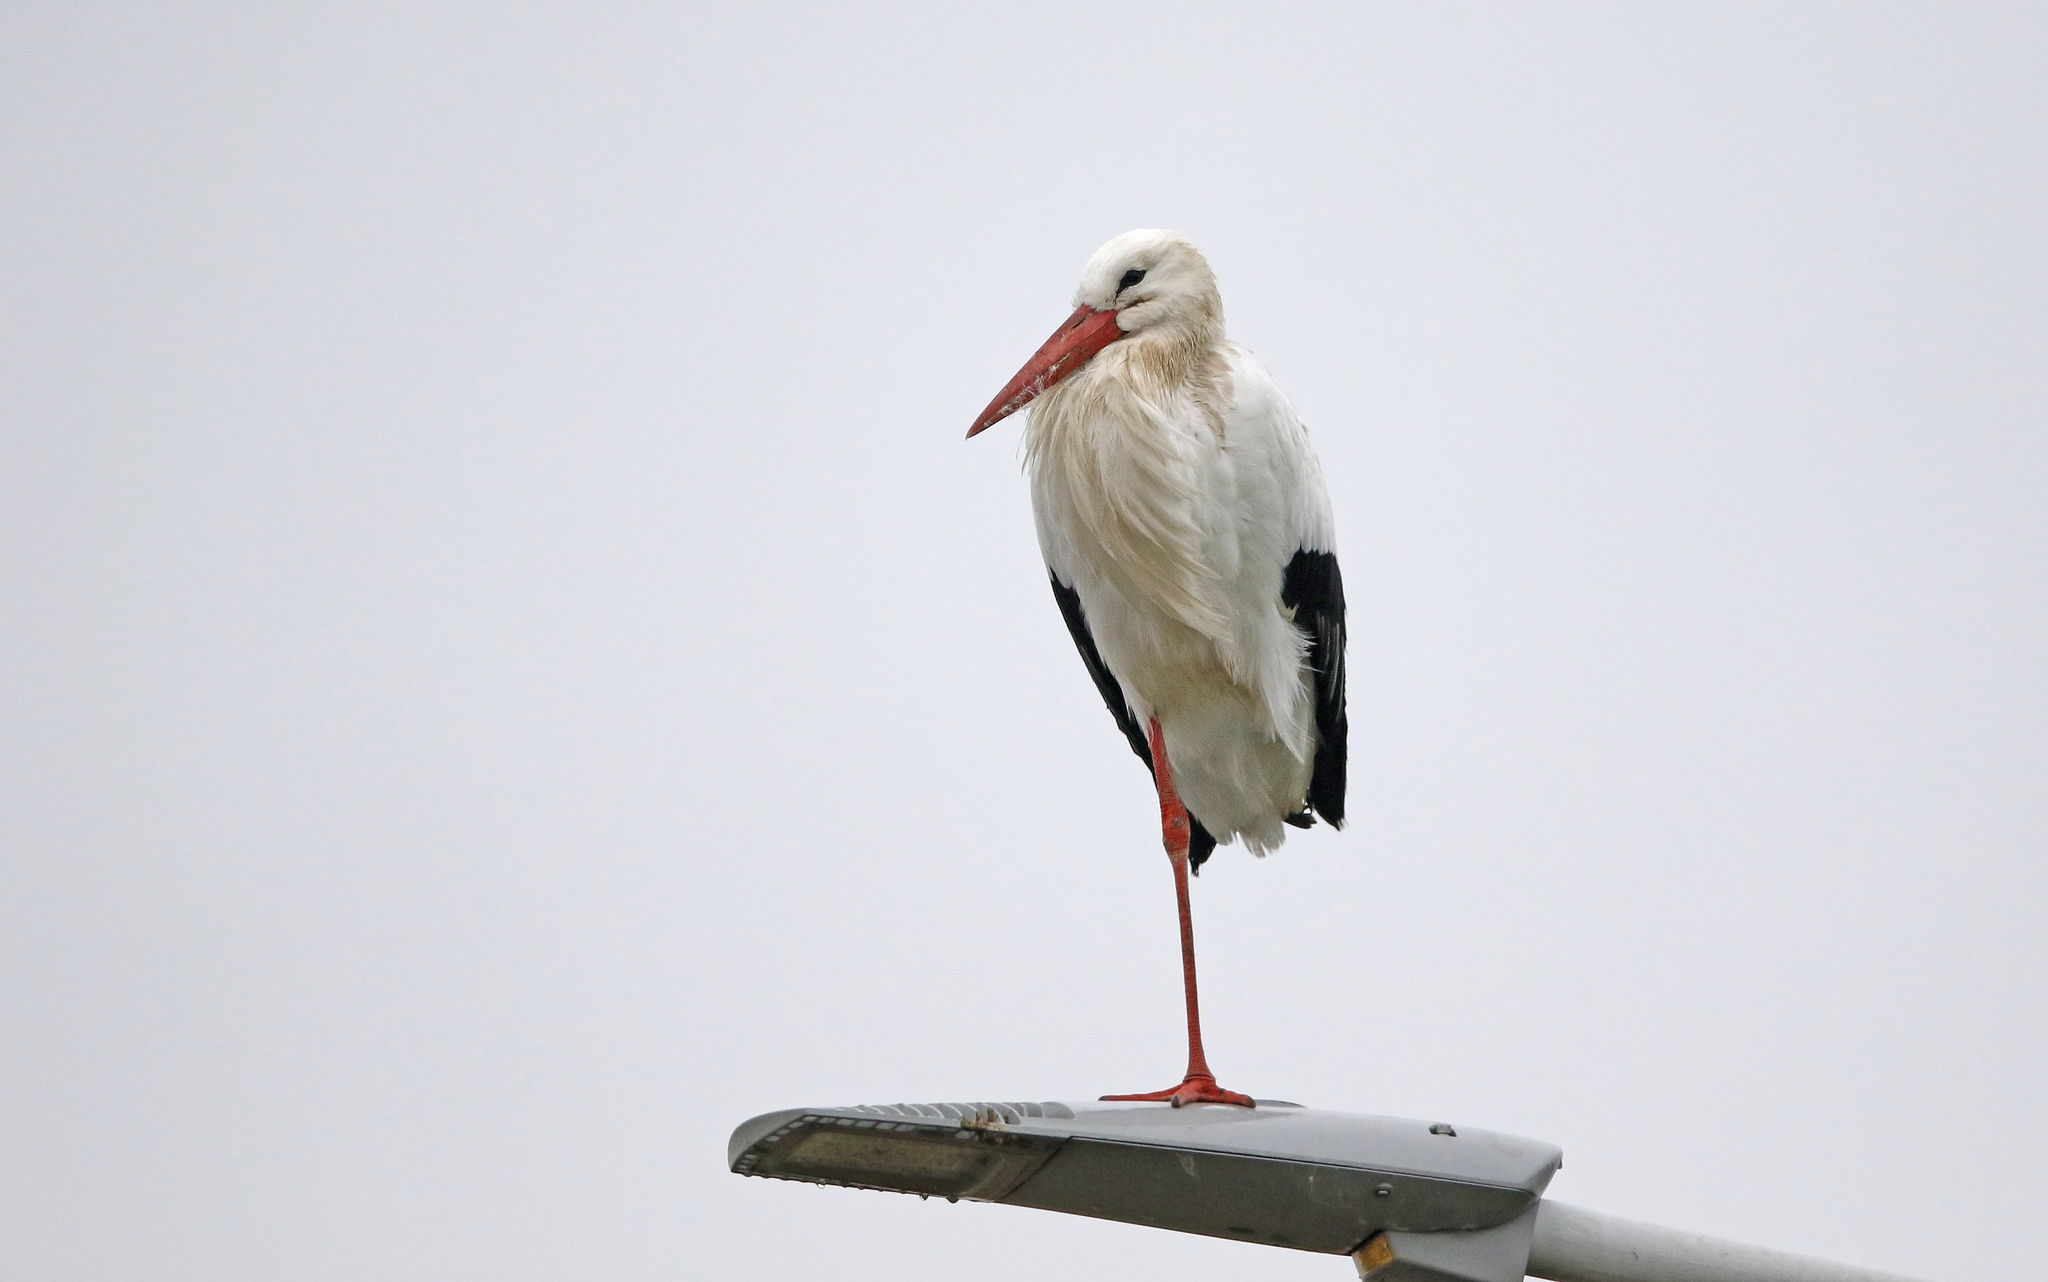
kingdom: Animalia
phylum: Chordata
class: Aves
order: Ciconiiformes
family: Ciconiidae
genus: Ciconia
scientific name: Ciconia ciconia
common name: White stork
